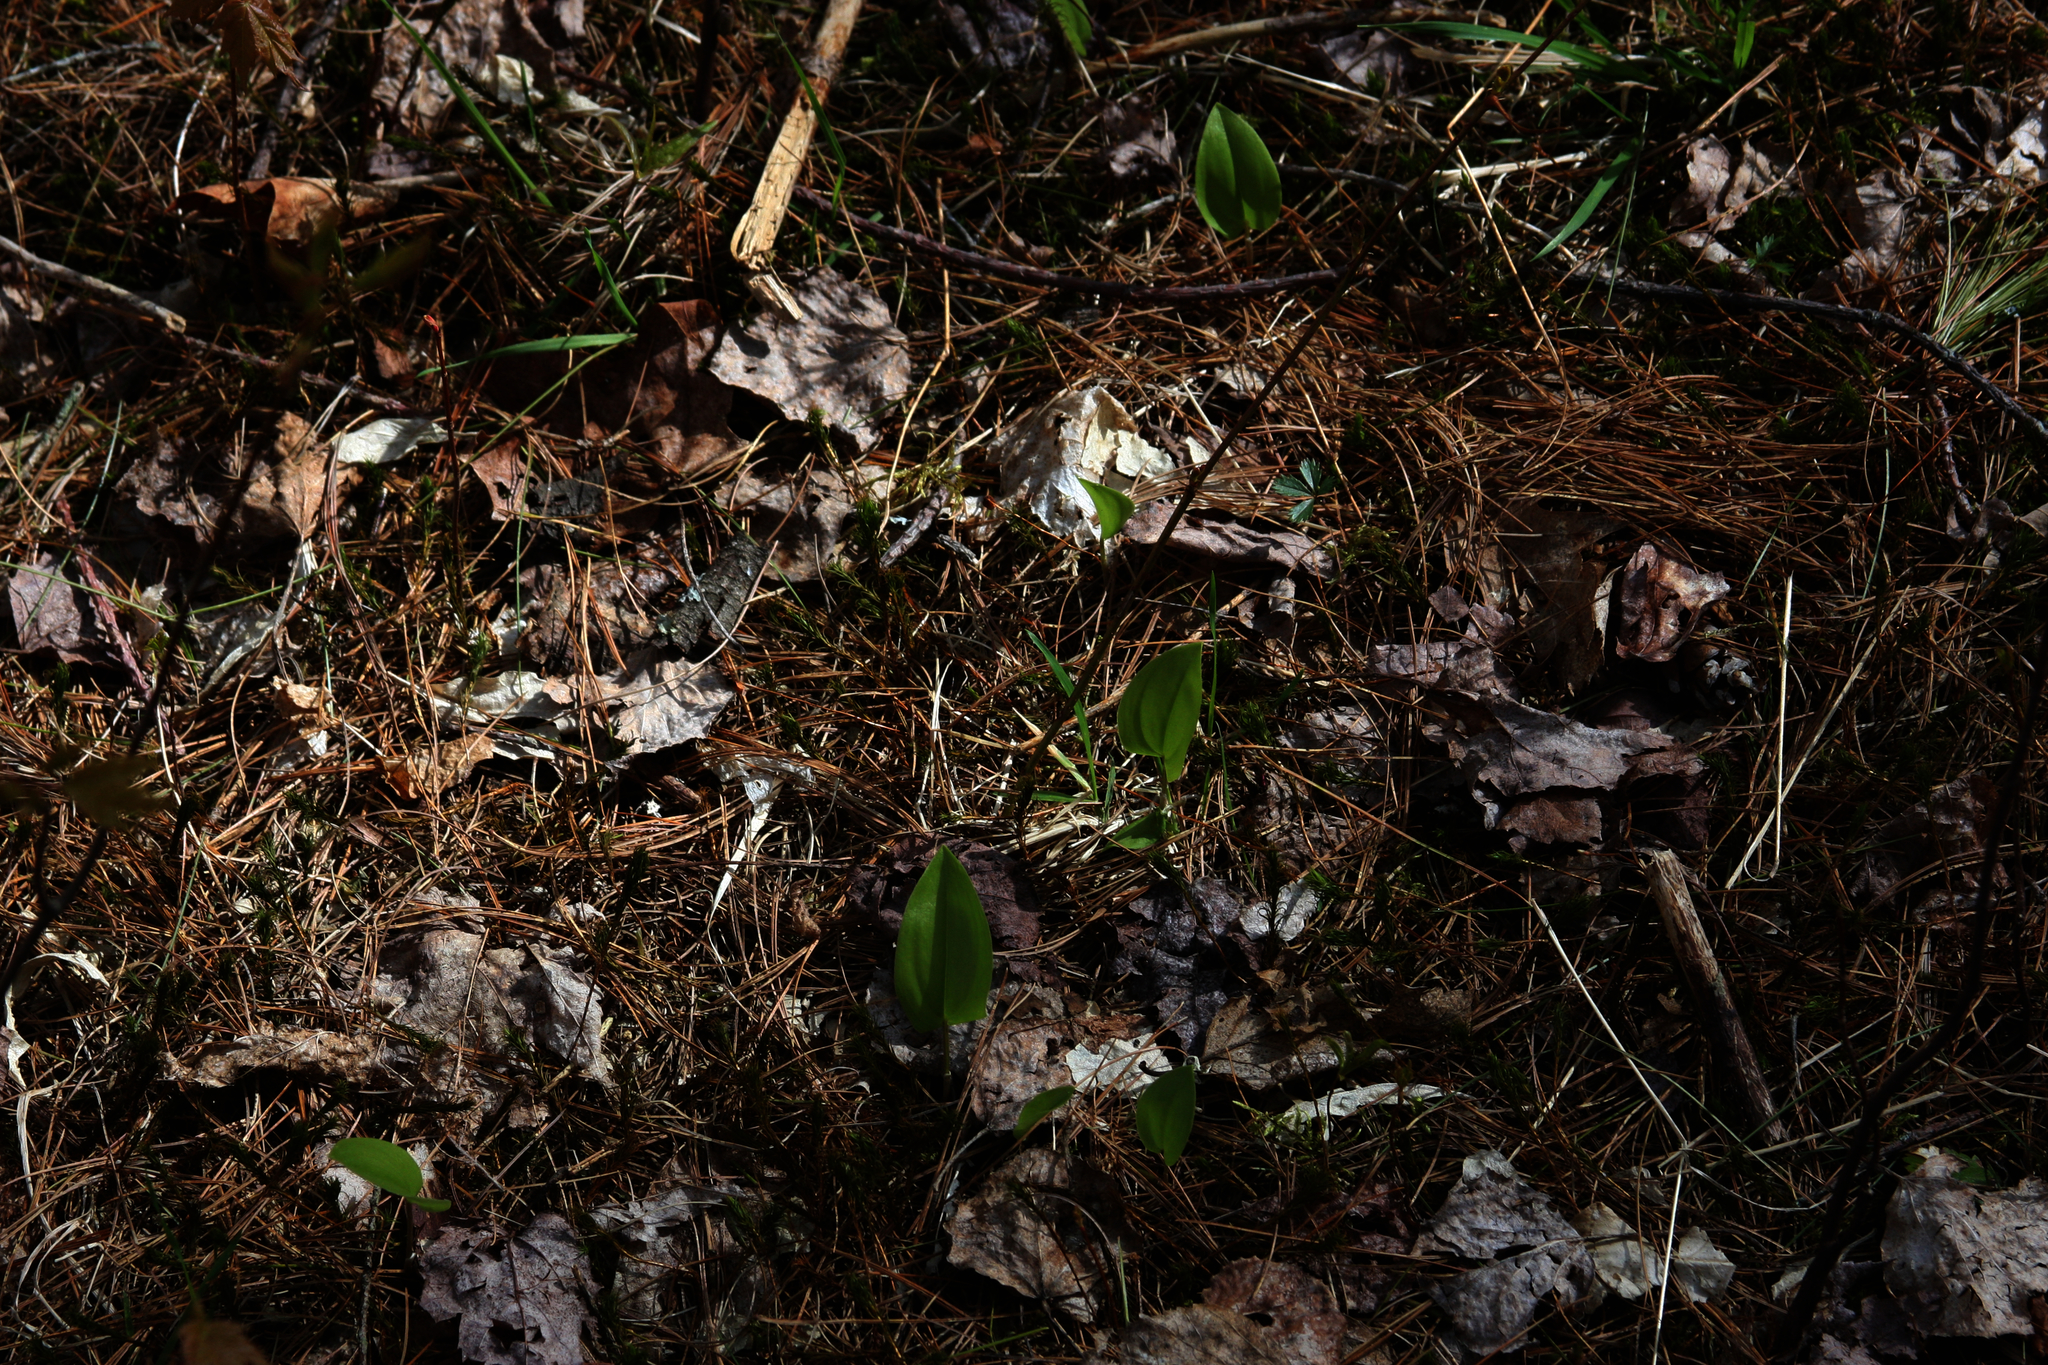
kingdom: Plantae
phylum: Tracheophyta
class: Liliopsida
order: Asparagales
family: Asparagaceae
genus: Maianthemum
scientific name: Maianthemum canadense
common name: False lily-of-the-valley
